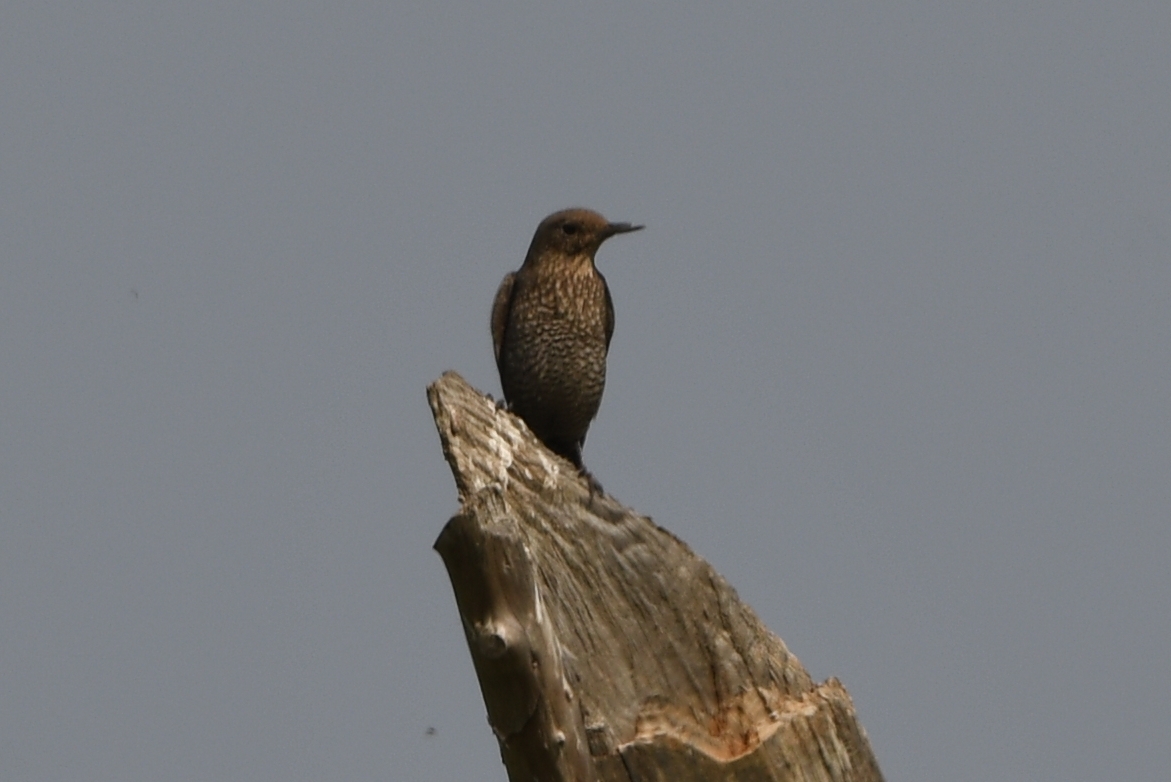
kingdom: Animalia
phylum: Chordata
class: Aves
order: Passeriformes
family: Muscicapidae
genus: Monticola
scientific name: Monticola solitarius
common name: Blue rock thrush
